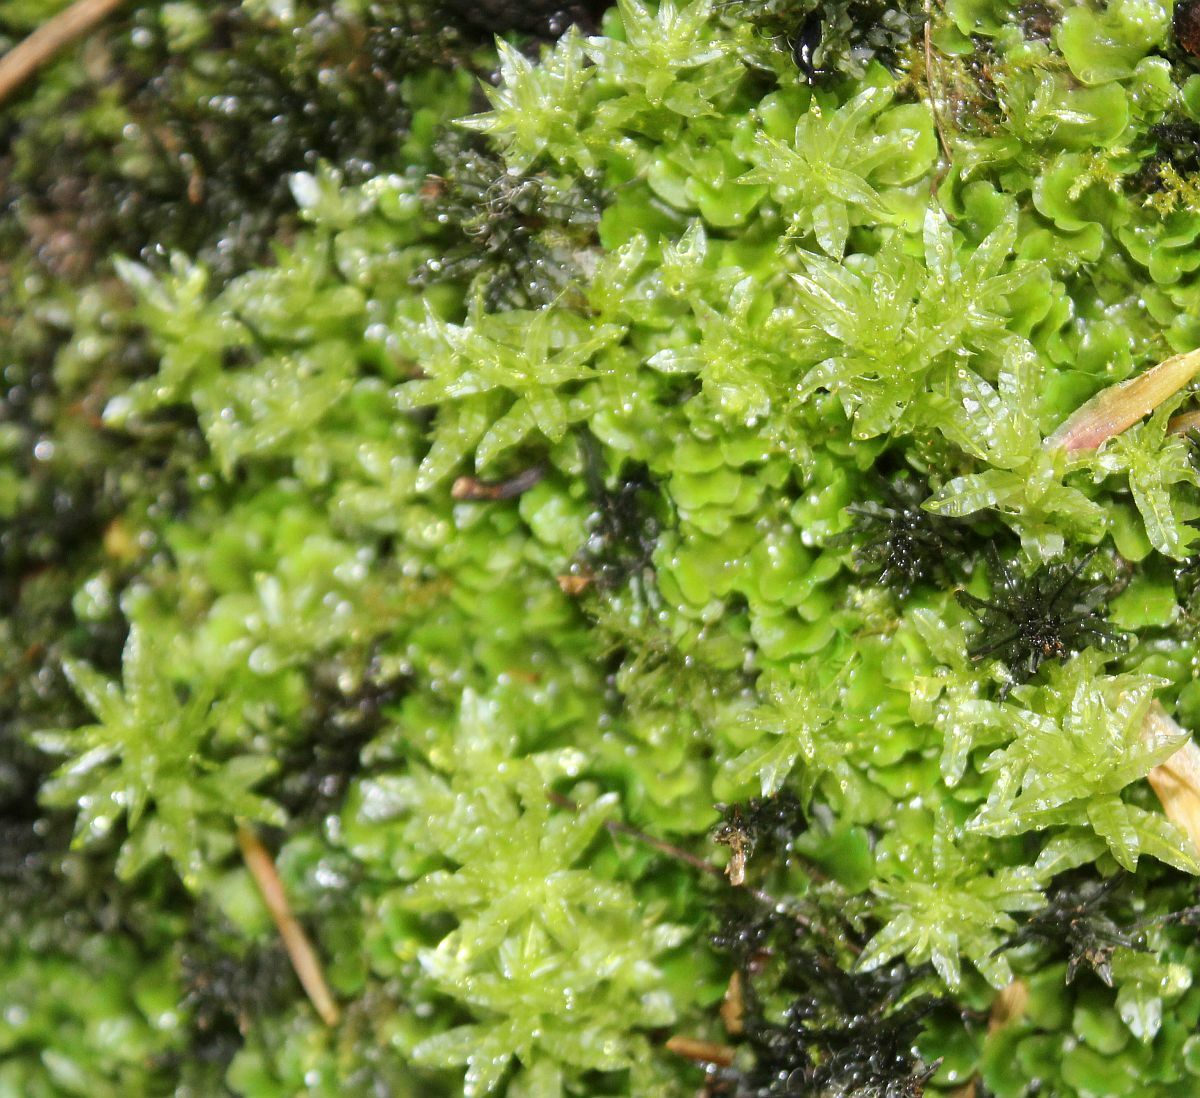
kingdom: Plantae
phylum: Bryophyta
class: Bryopsida
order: Bryales
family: Mniaceae
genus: Plagiomnium
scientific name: Plagiomnium undulatum
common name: Hart's-tongue thyme-moss
